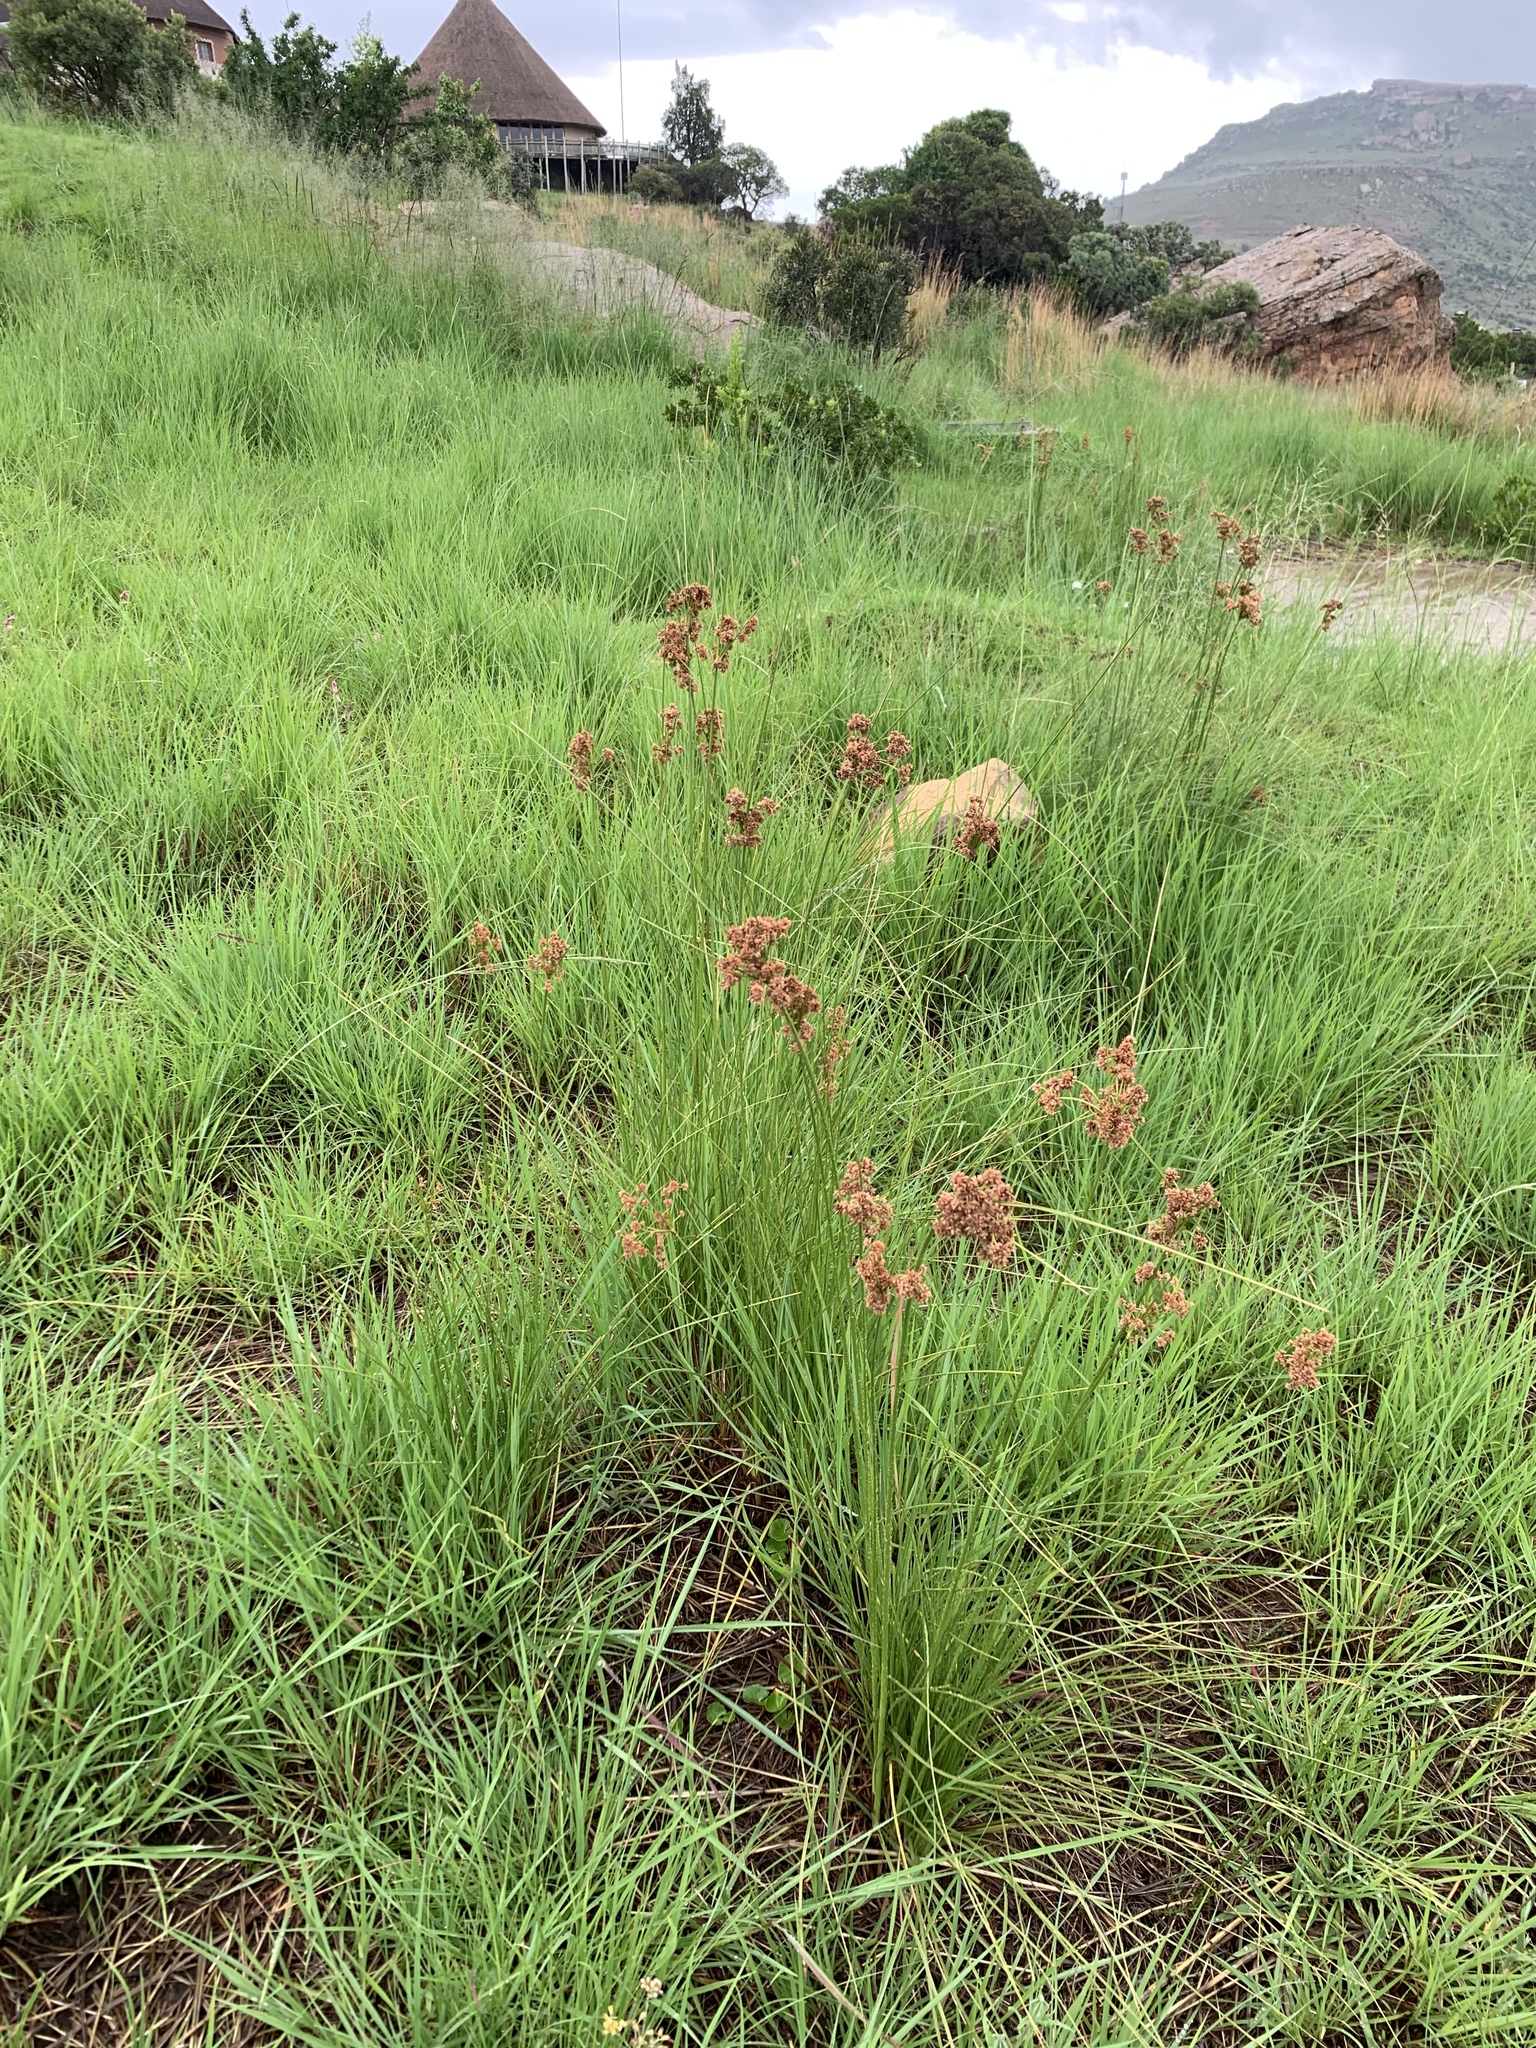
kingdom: Plantae
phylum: Tracheophyta
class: Liliopsida
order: Poales
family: Cyperaceae
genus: Scirpoides
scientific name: Scirpoides burkei
